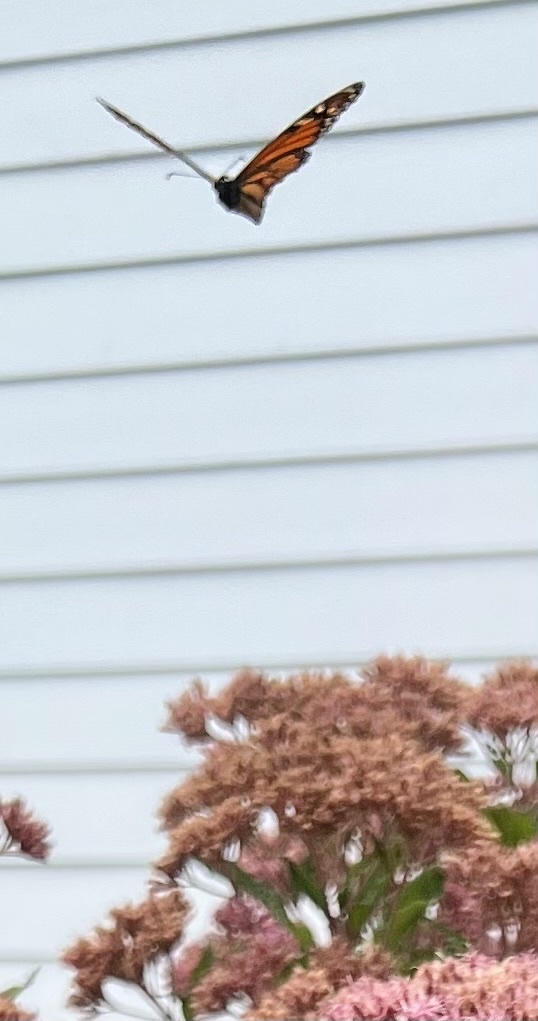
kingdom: Animalia
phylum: Arthropoda
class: Insecta
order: Lepidoptera
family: Nymphalidae
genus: Danaus
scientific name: Danaus plexippus
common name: Monarch
